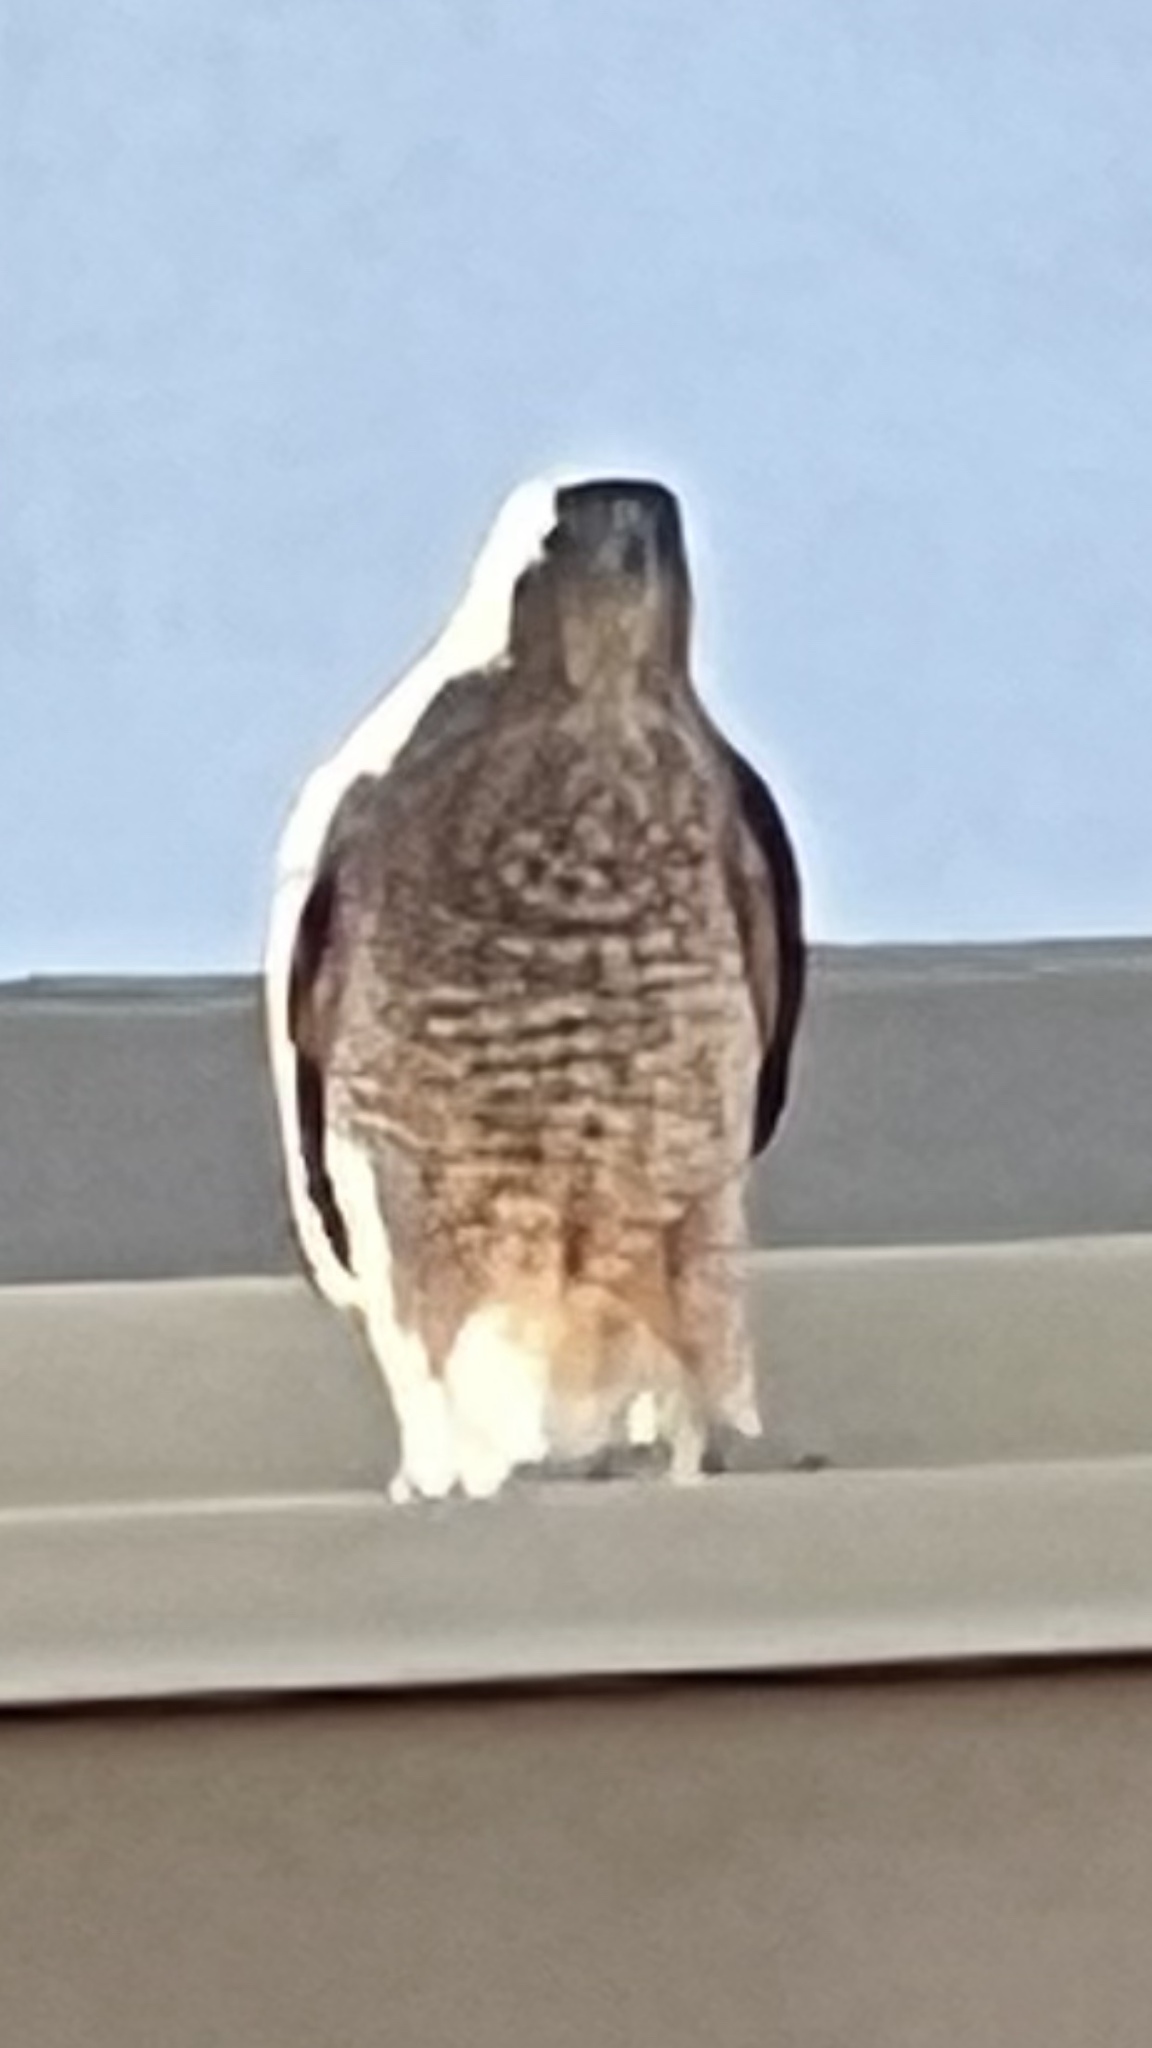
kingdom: Animalia
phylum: Chordata
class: Aves
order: Accipitriformes
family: Accipitridae
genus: Accipiter
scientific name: Accipiter cooperii
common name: Cooper's hawk
